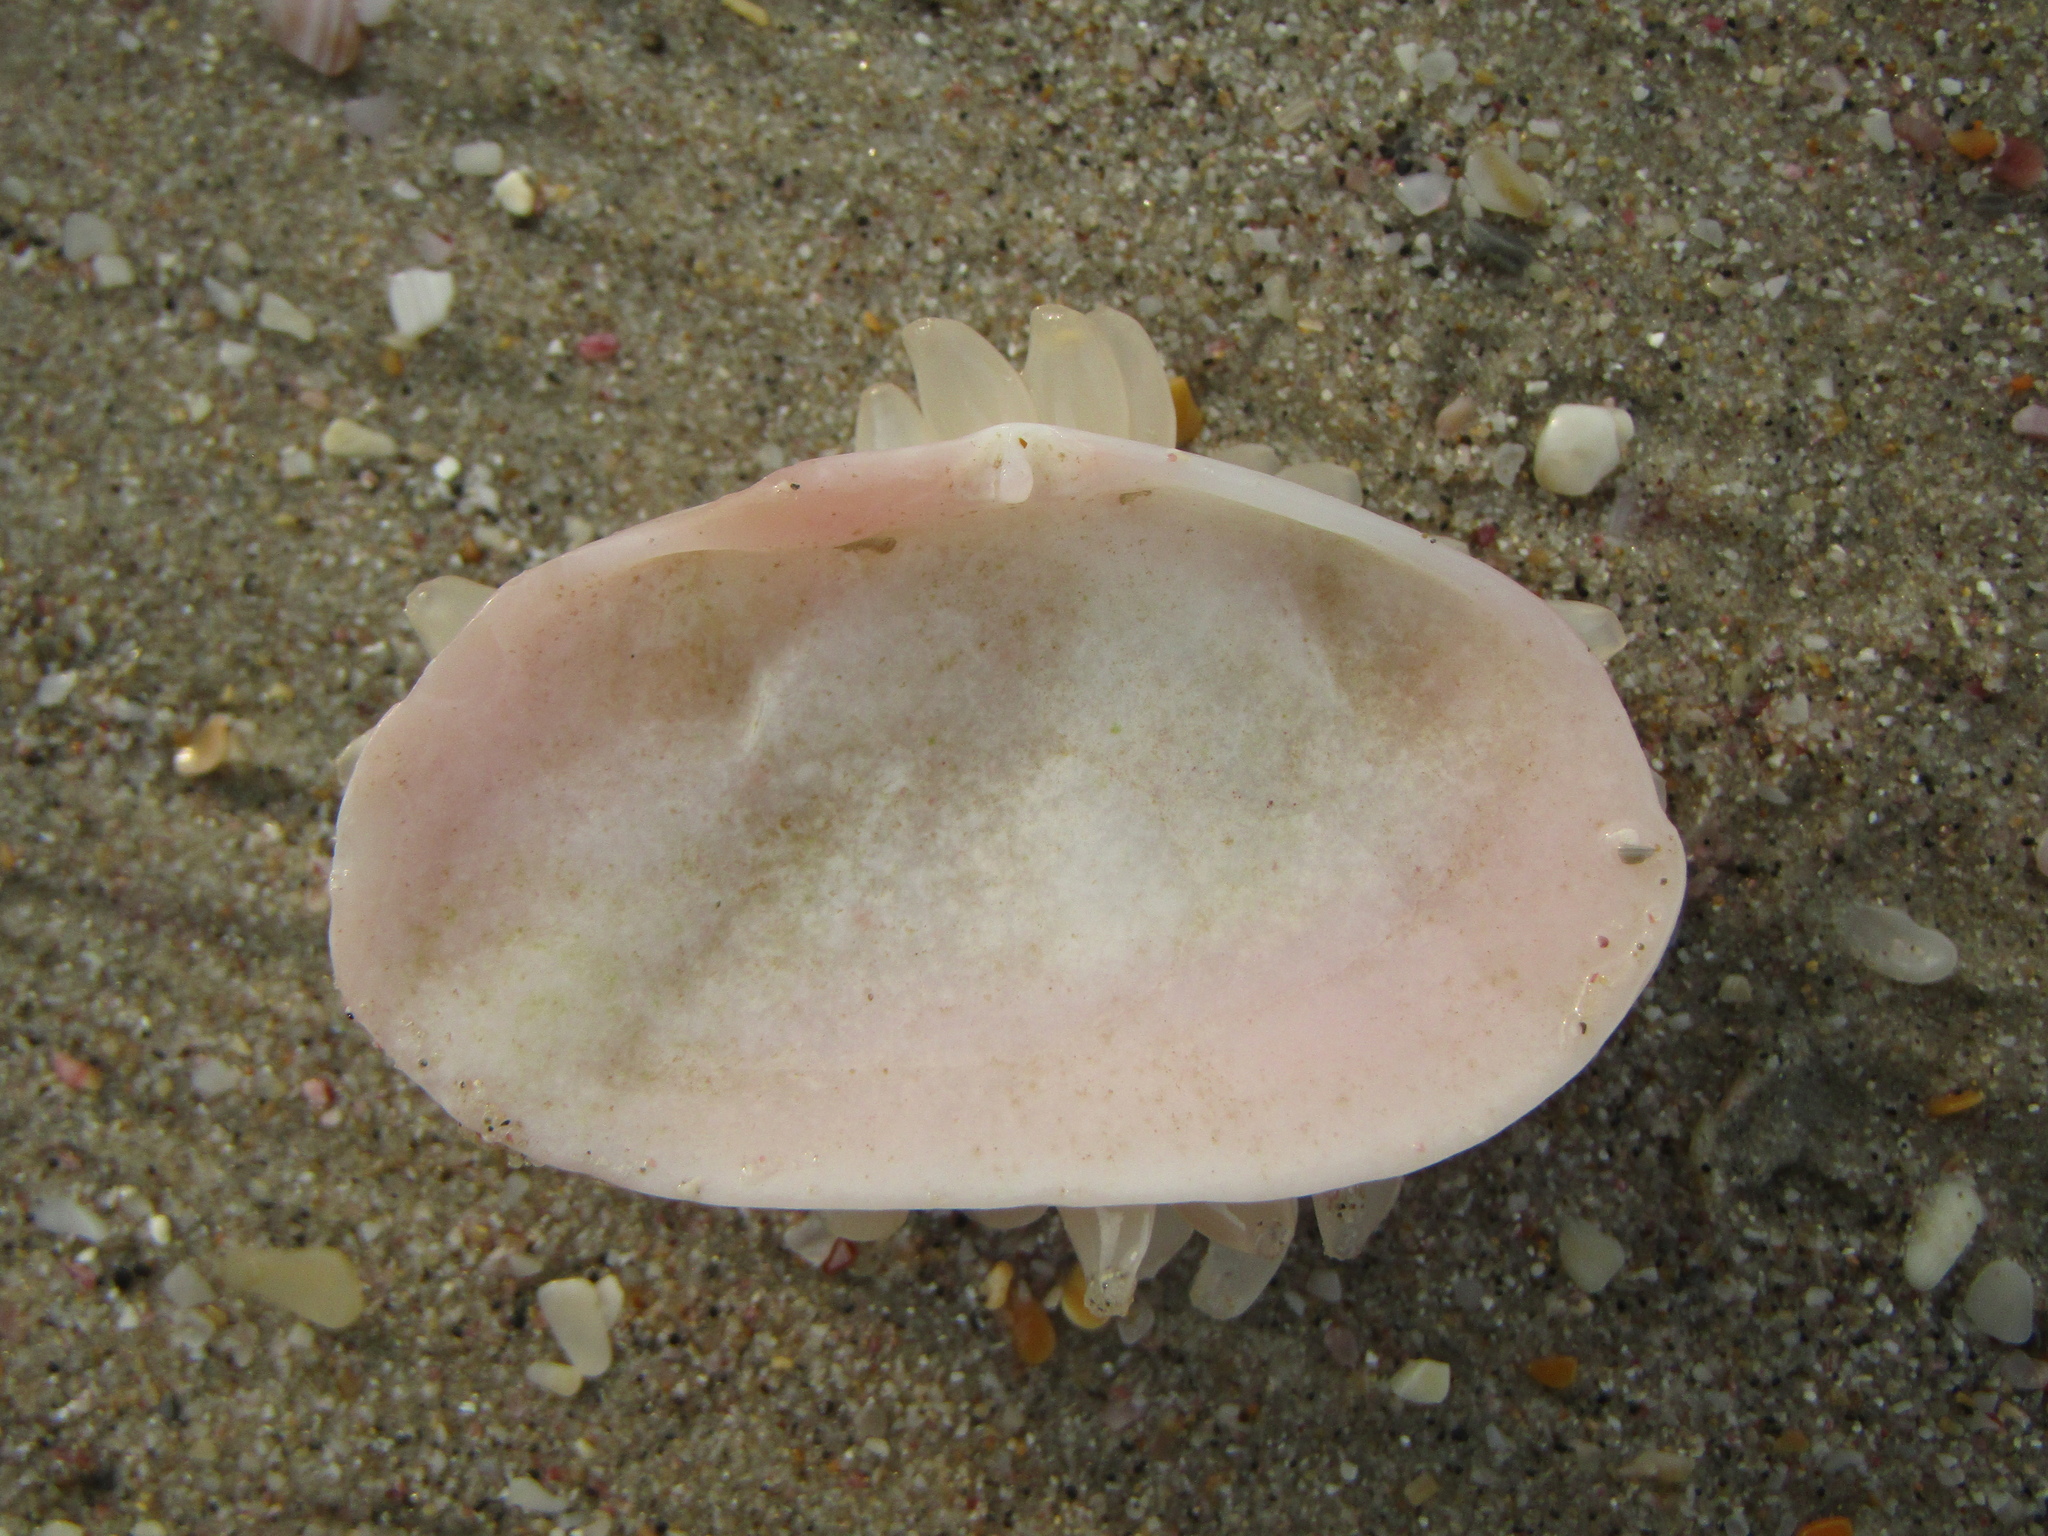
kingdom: Animalia
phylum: Mollusca
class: Gastropoda
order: Neogastropoda
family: Cominellidae
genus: Cominella
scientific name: Cominella adspersa
